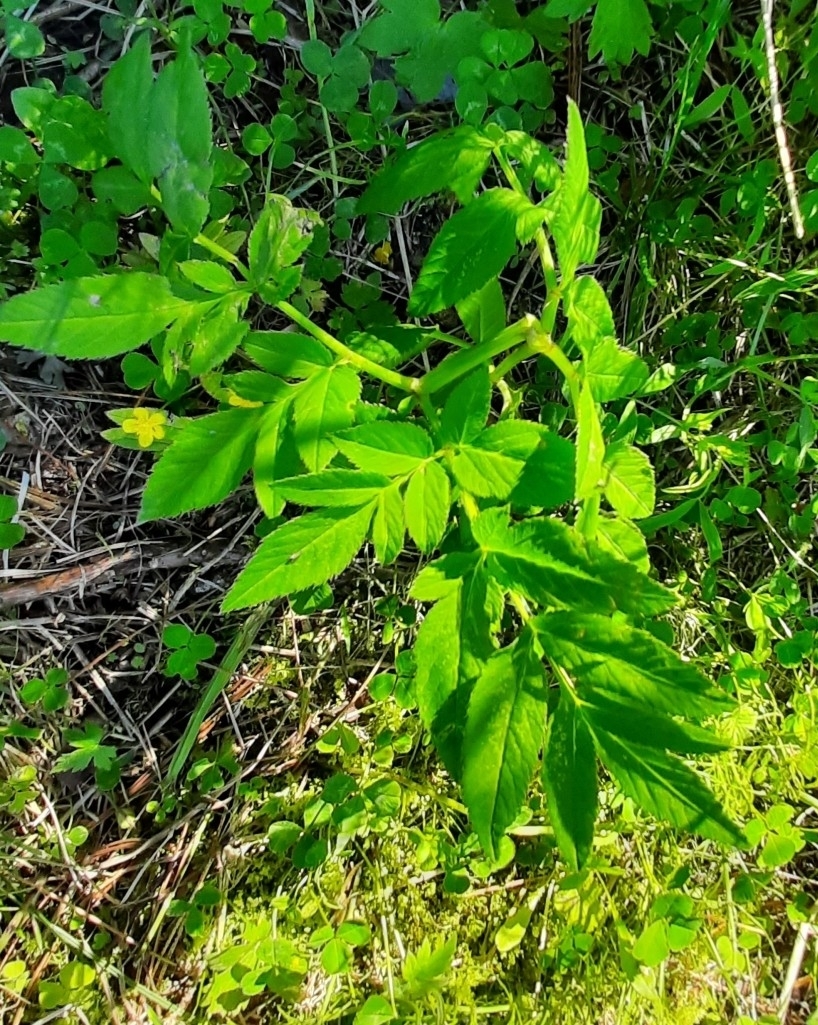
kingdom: Plantae
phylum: Tracheophyta
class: Magnoliopsida
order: Apiales
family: Apiaceae
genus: Angelica
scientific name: Angelica sylvestris
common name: Wild angelica
